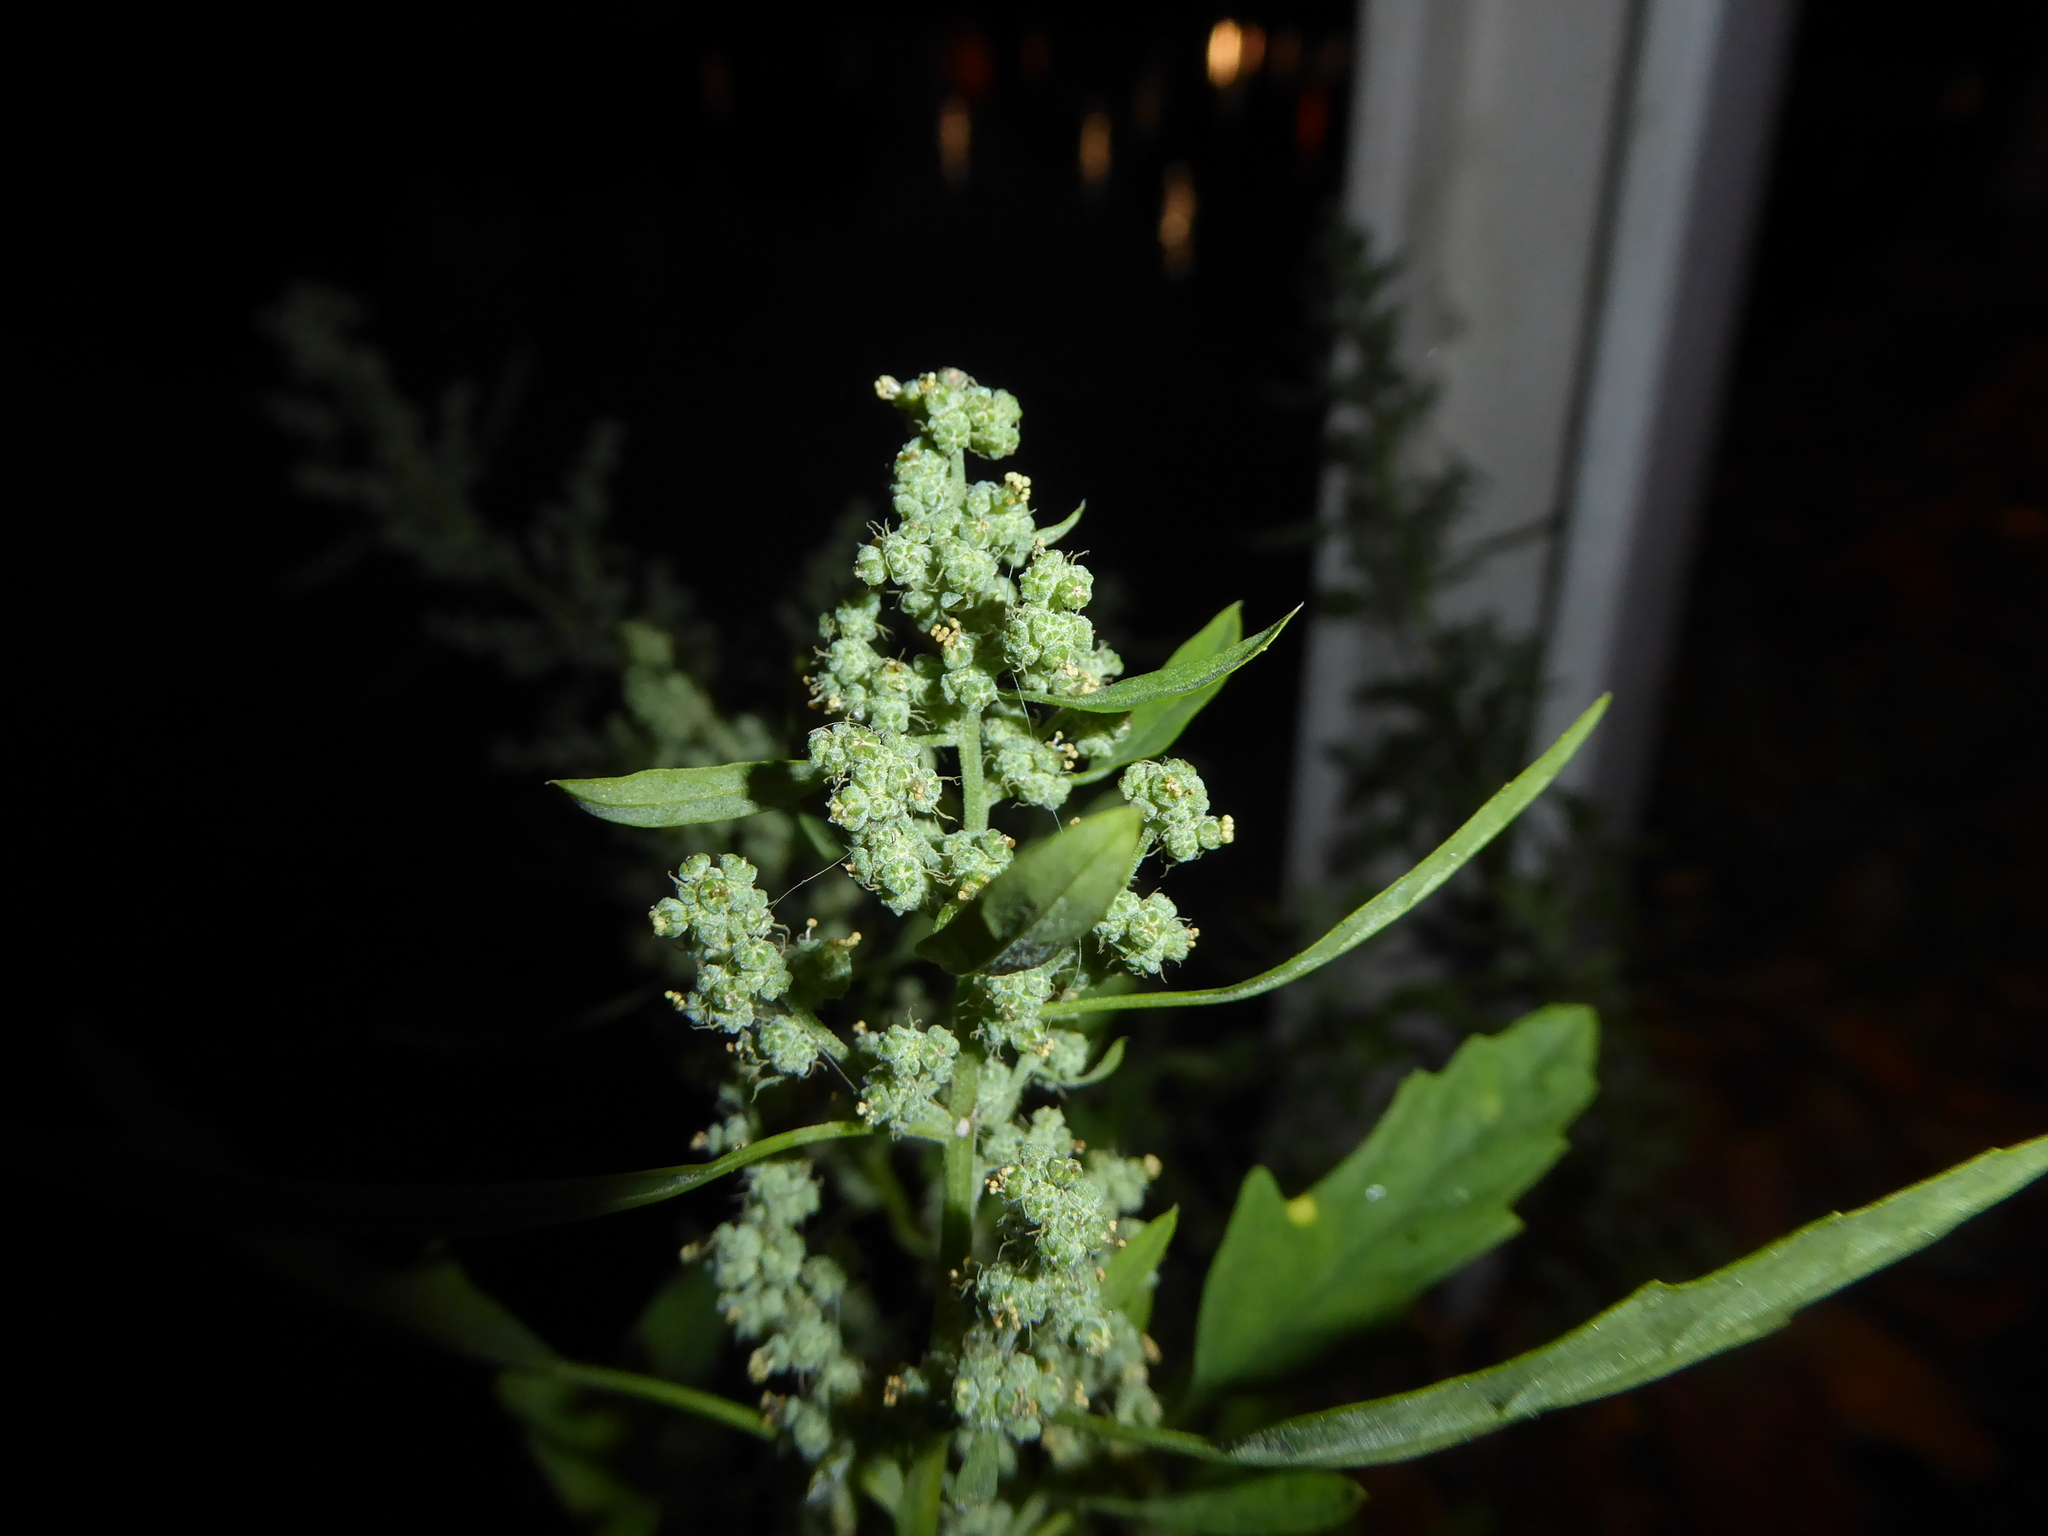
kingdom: Plantae
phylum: Tracheophyta
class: Magnoliopsida
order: Caryophyllales
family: Amaranthaceae
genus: Chenopodium
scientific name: Chenopodium ficifolium
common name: Fig-leaved goosefoot
